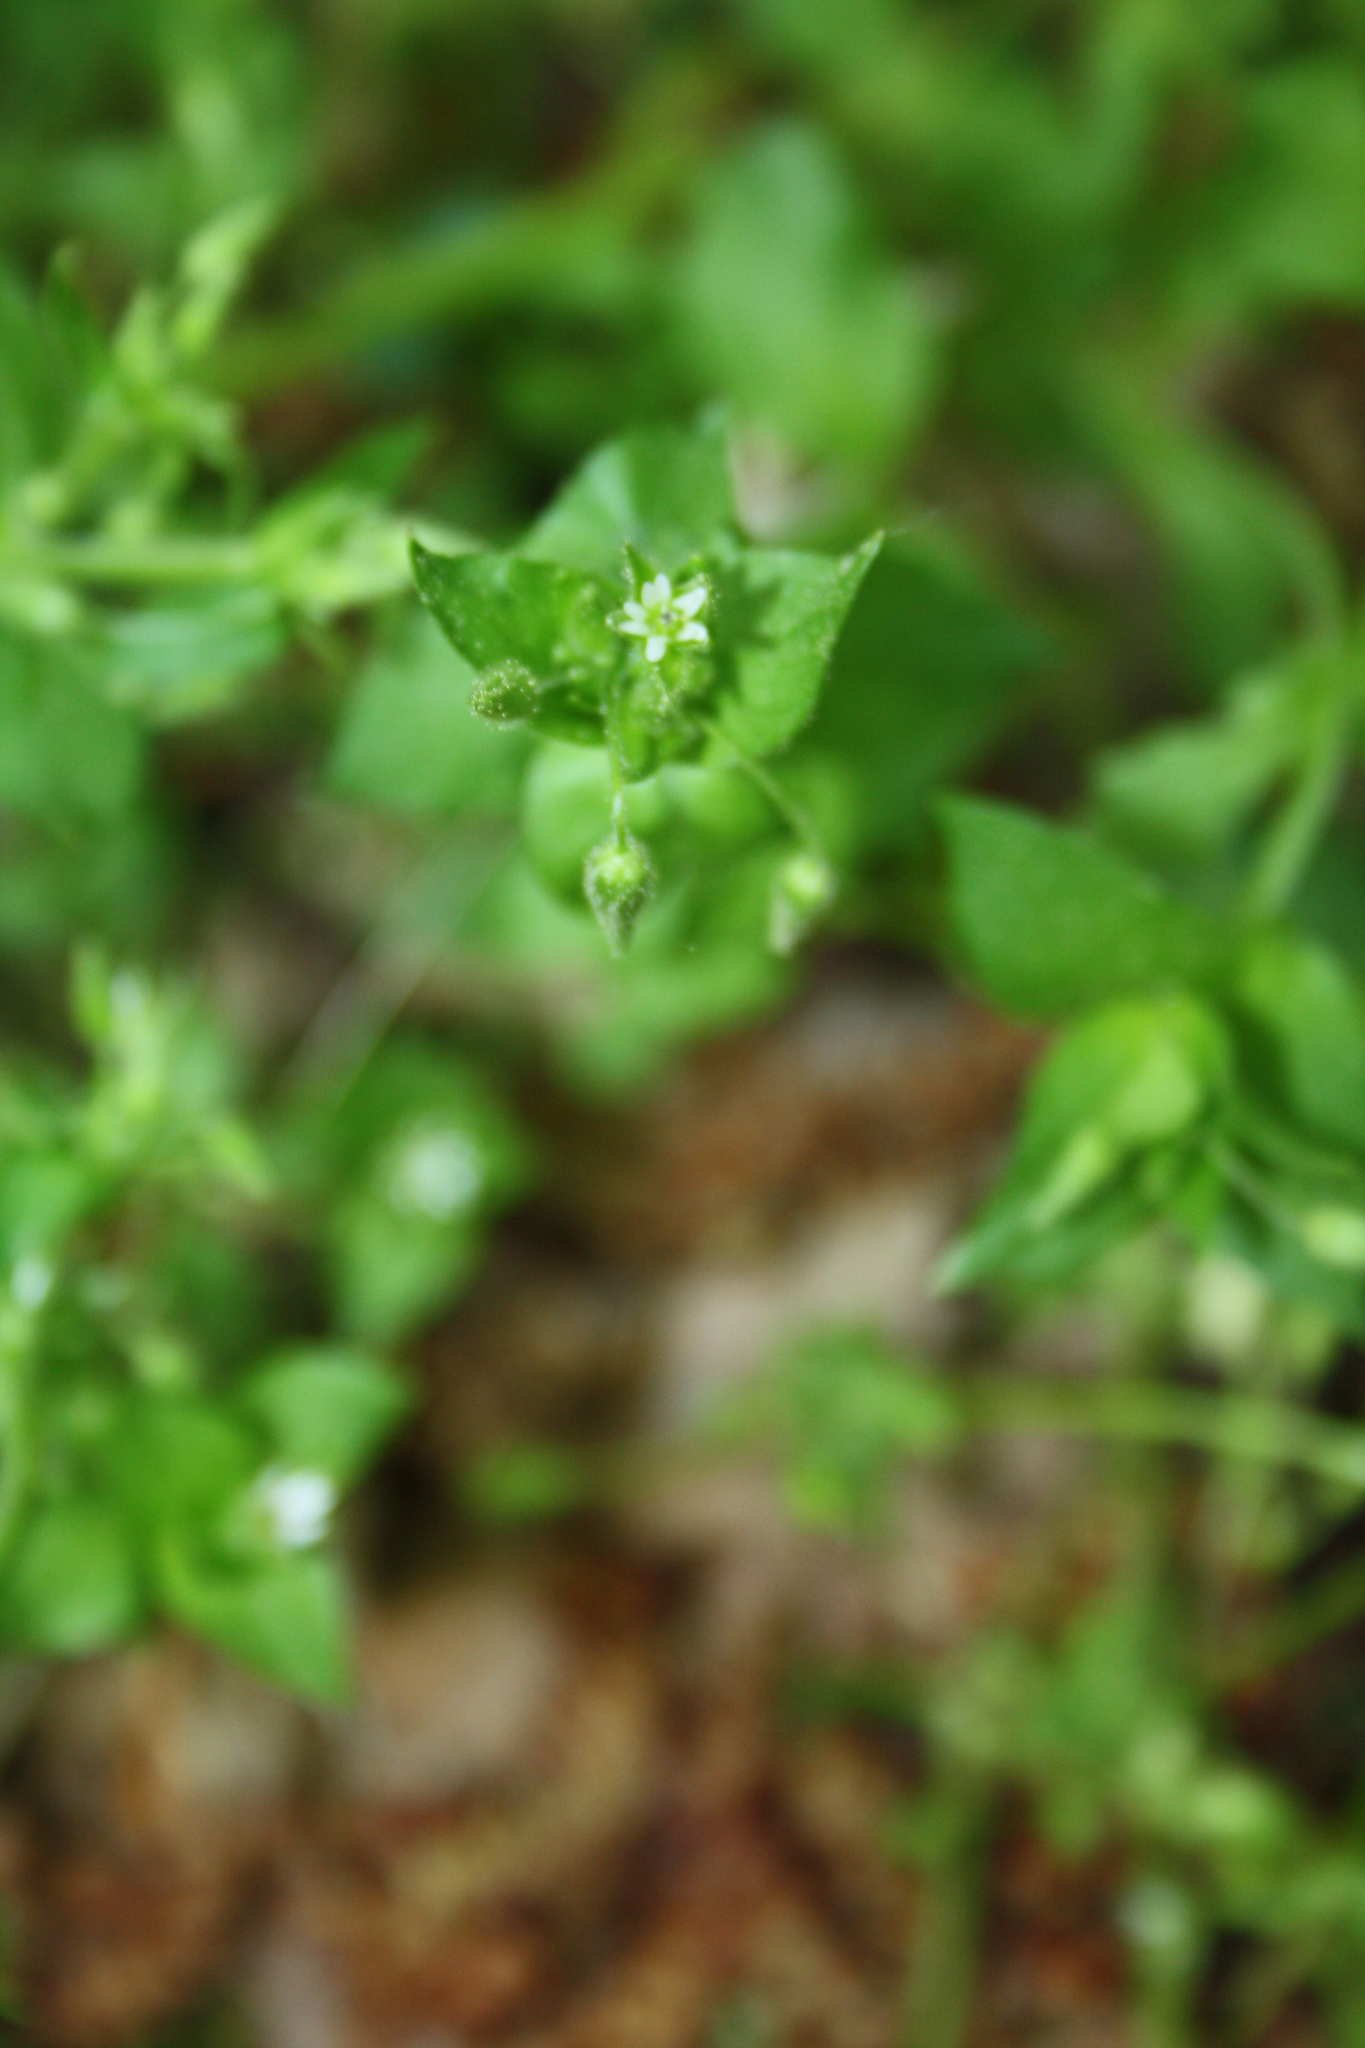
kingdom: Plantae
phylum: Tracheophyta
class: Magnoliopsida
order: Caryophyllales
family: Caryophyllaceae
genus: Stellaria
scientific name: Stellaria media
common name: Common chickweed
